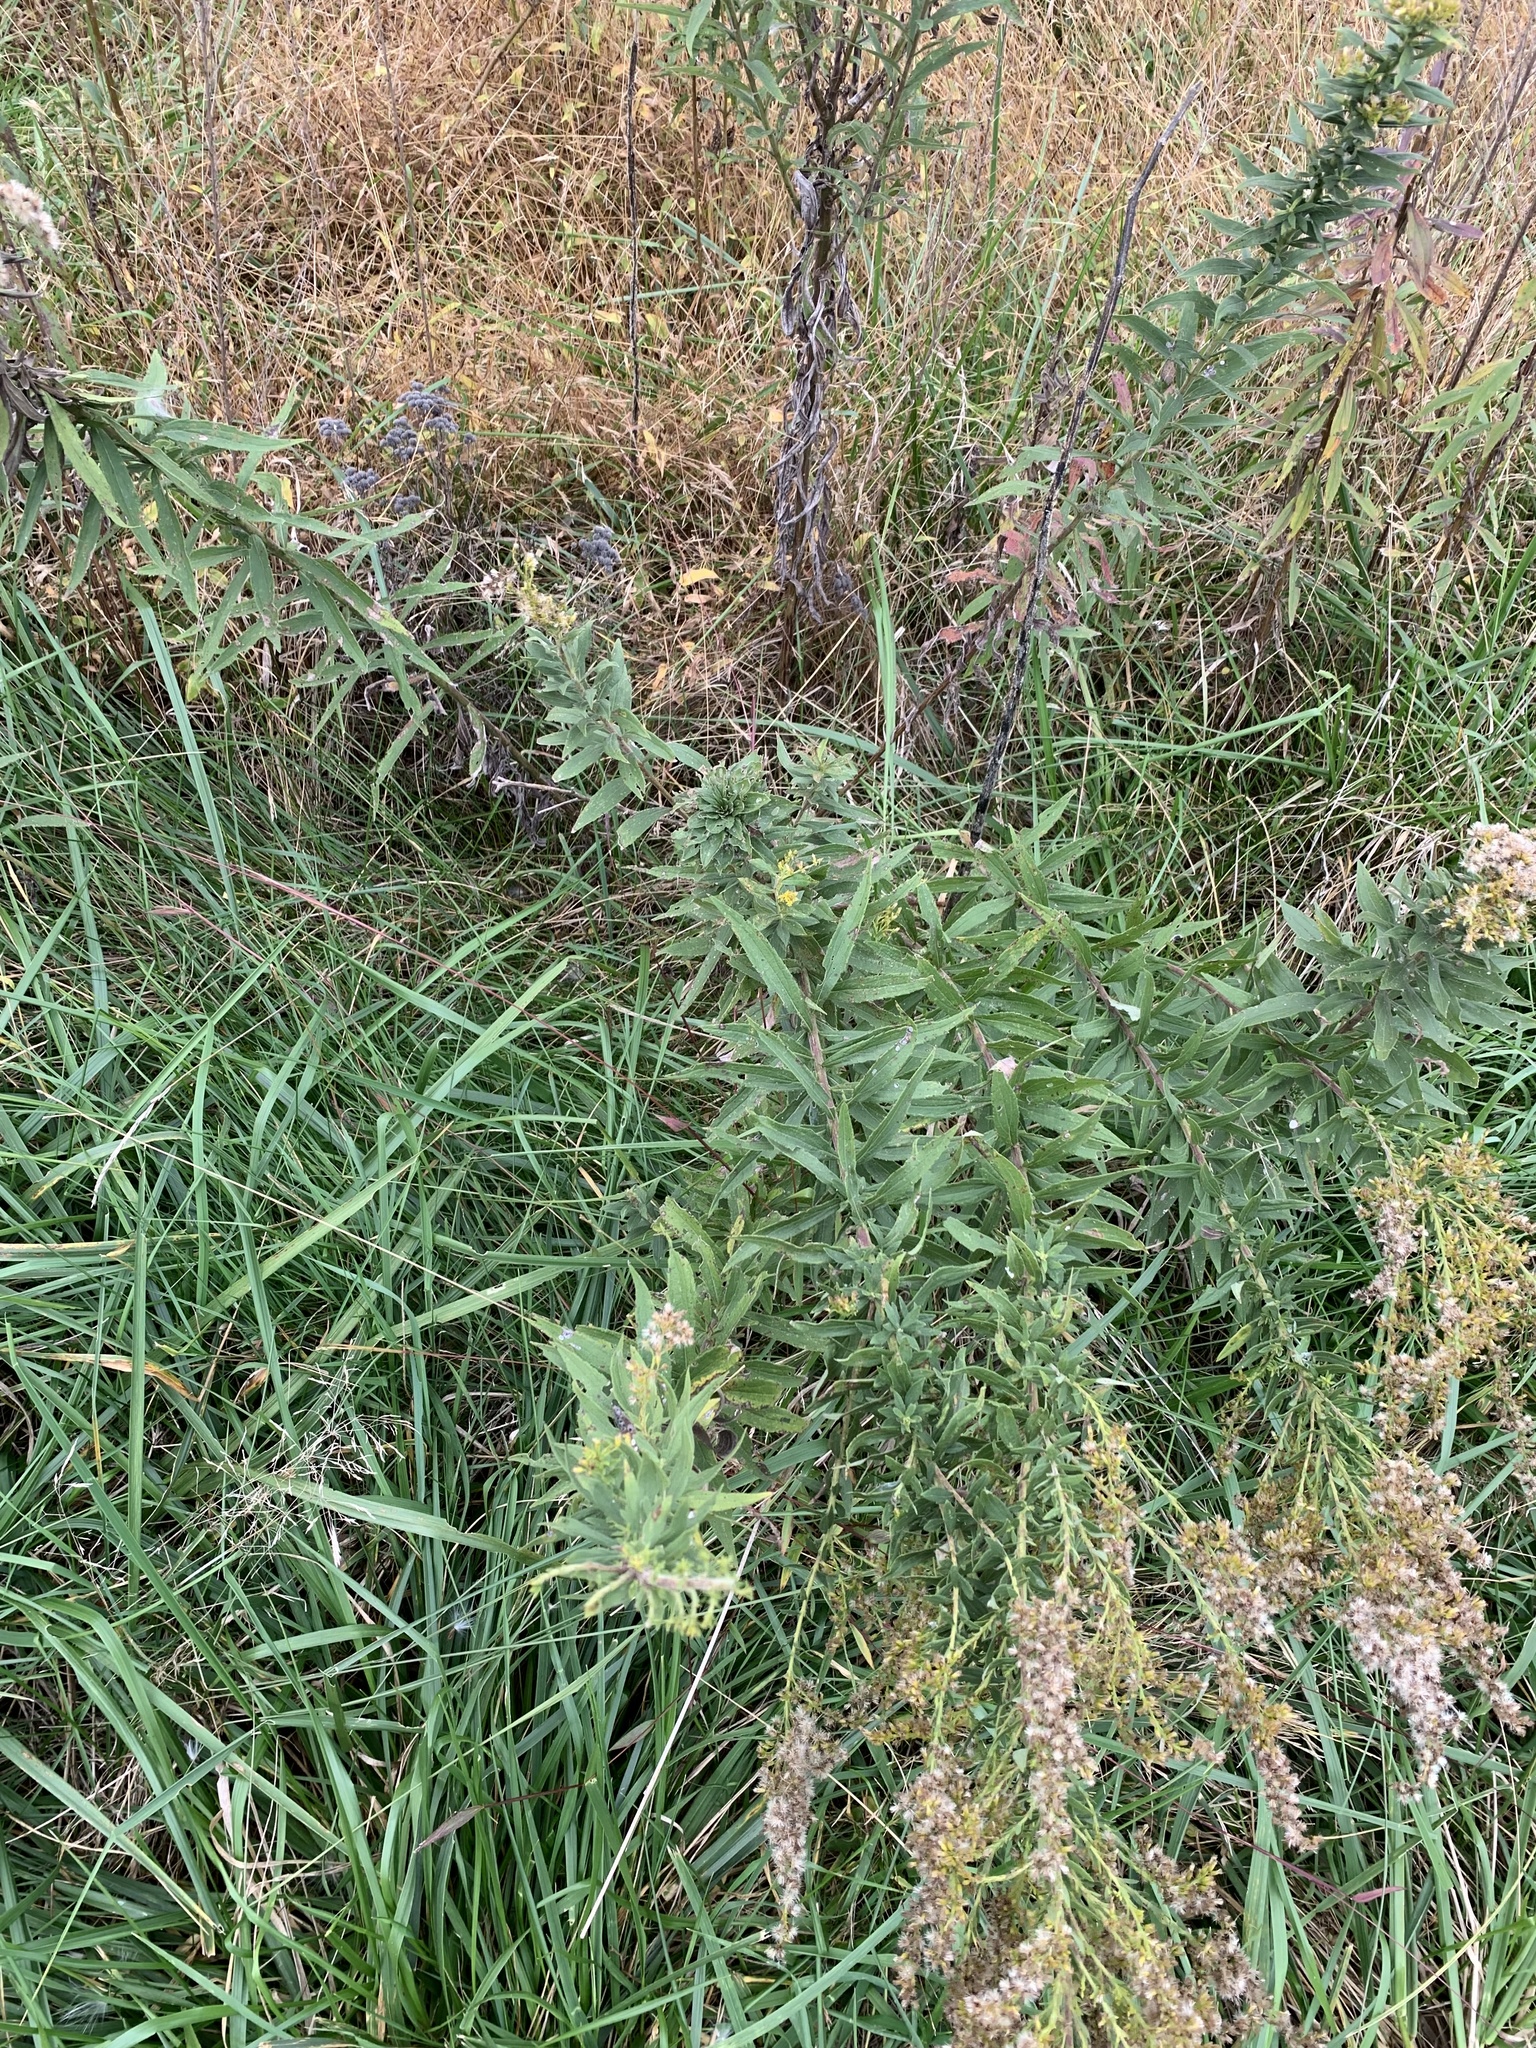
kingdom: Animalia
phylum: Arthropoda
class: Insecta
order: Diptera
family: Cecidomyiidae
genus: Rhopalomyia
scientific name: Rhopalomyia solidaginis
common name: Goldenrod bunch gall midge
